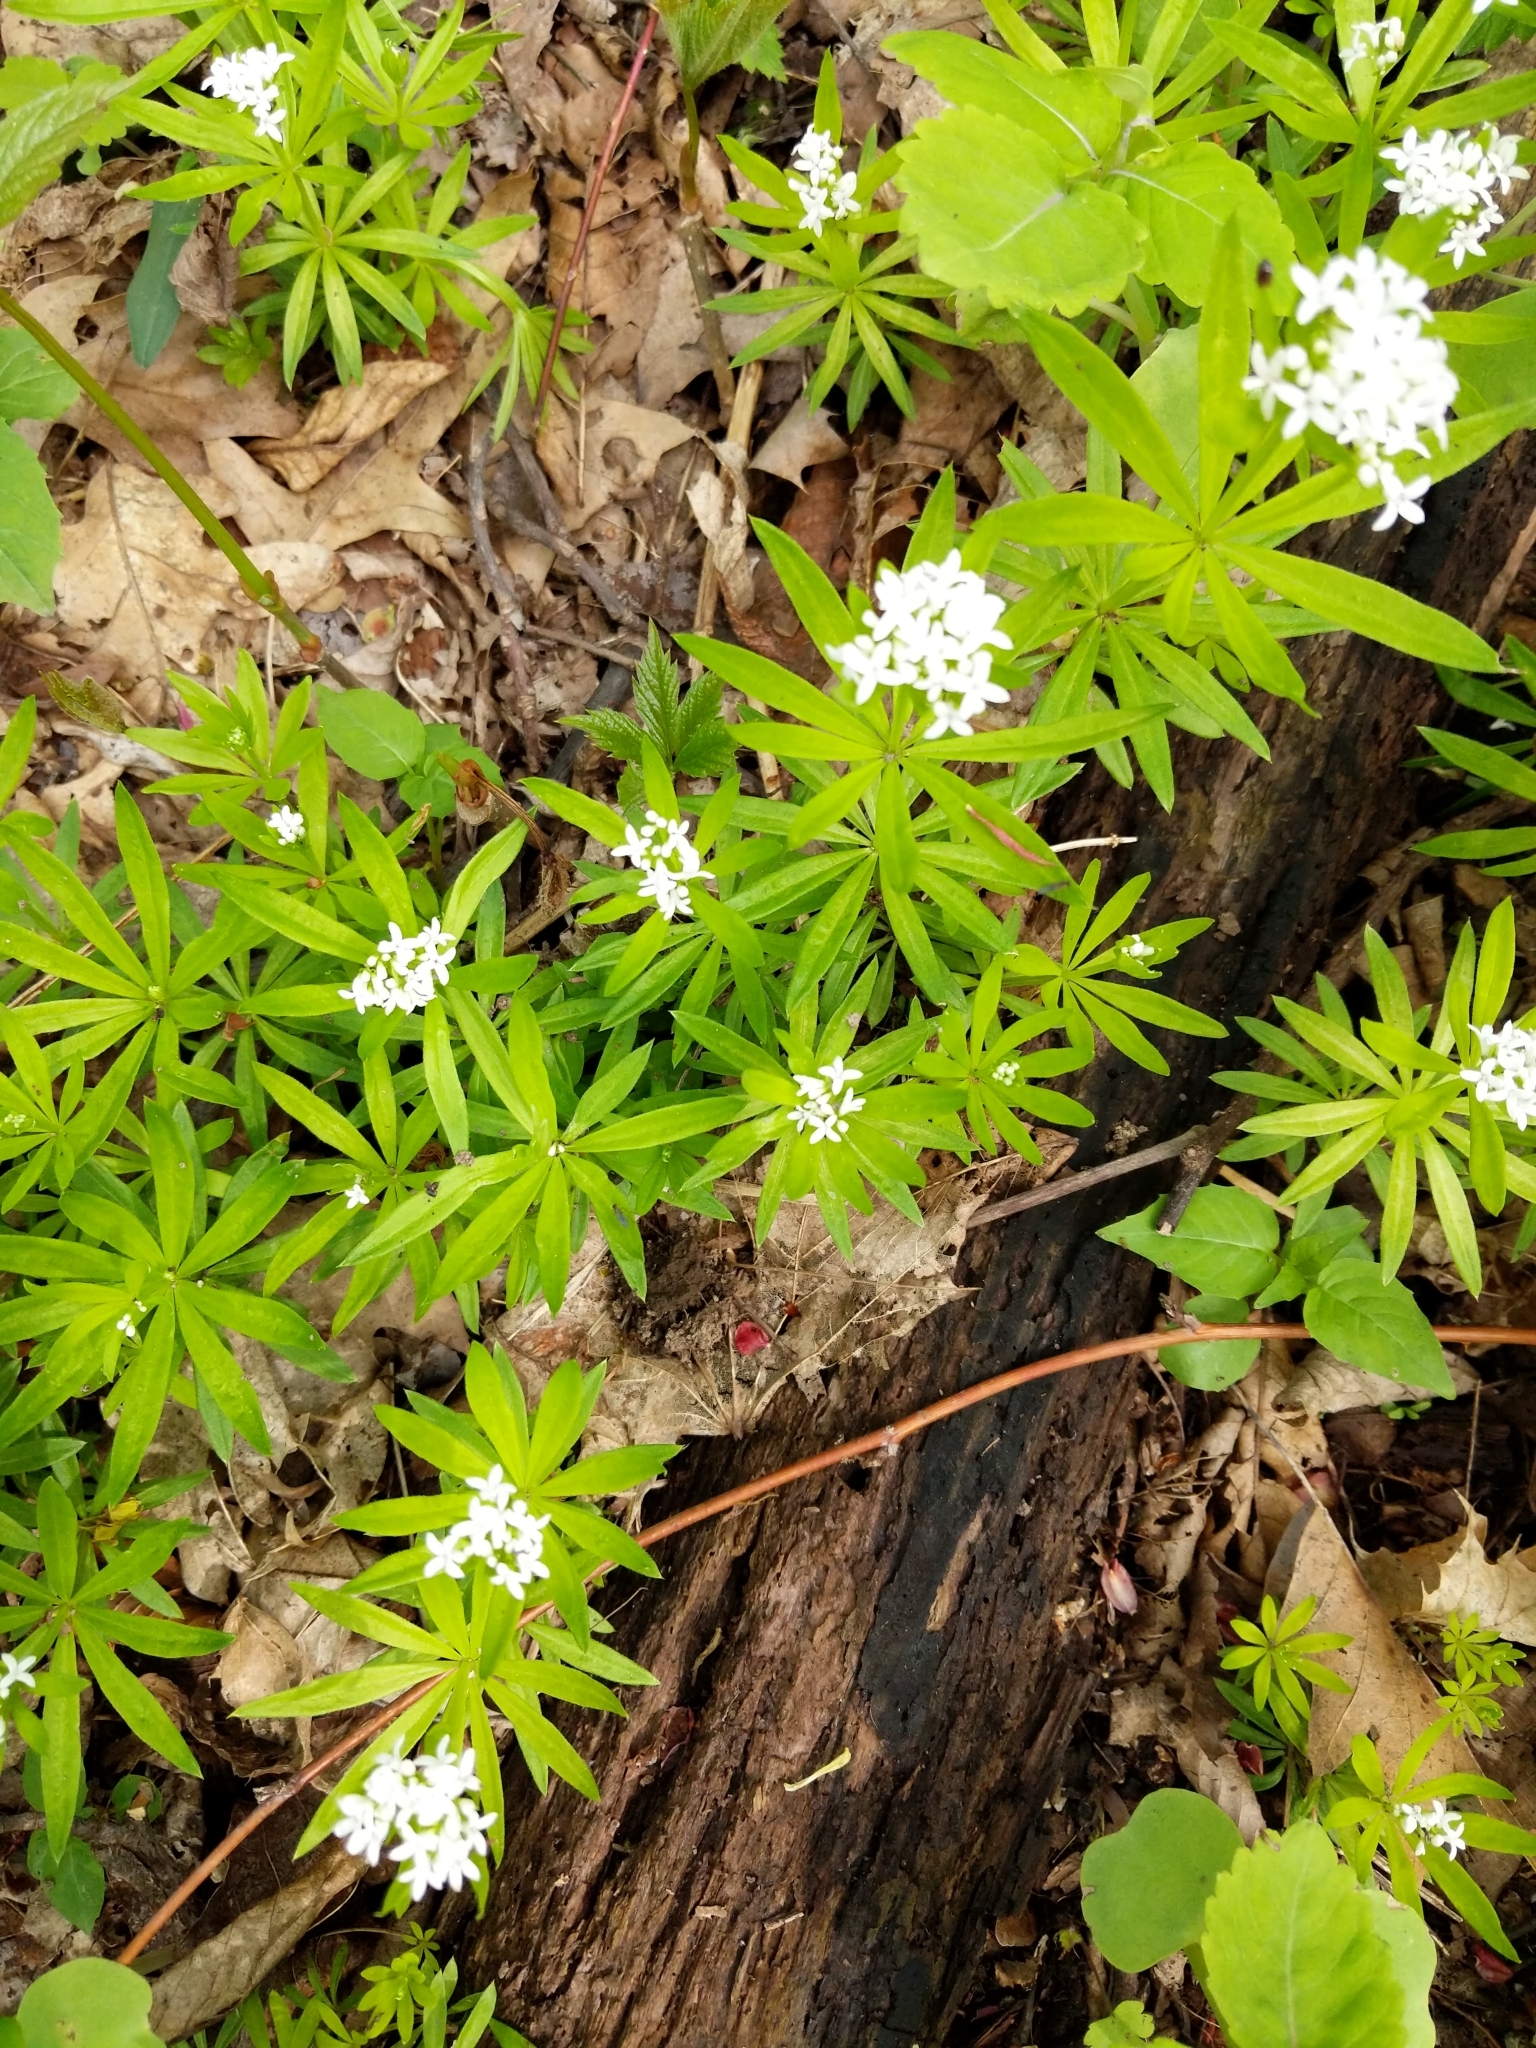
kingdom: Plantae
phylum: Tracheophyta
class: Magnoliopsida
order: Gentianales
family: Rubiaceae
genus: Galium
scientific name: Galium odoratum
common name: Sweet woodruff
